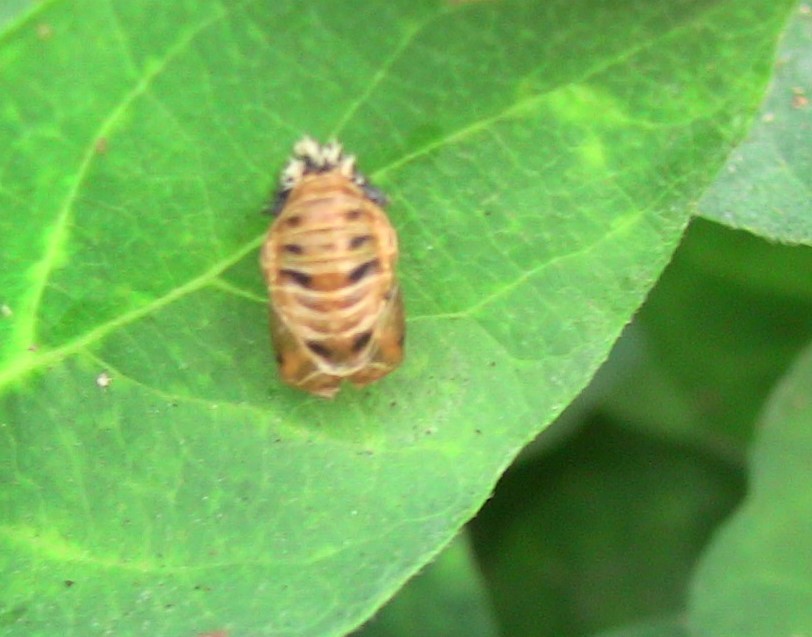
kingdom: Animalia
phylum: Arthropoda
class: Insecta
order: Coleoptera
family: Coccinellidae
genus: Harmonia
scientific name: Harmonia axyridis
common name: Harlequin ladybird
